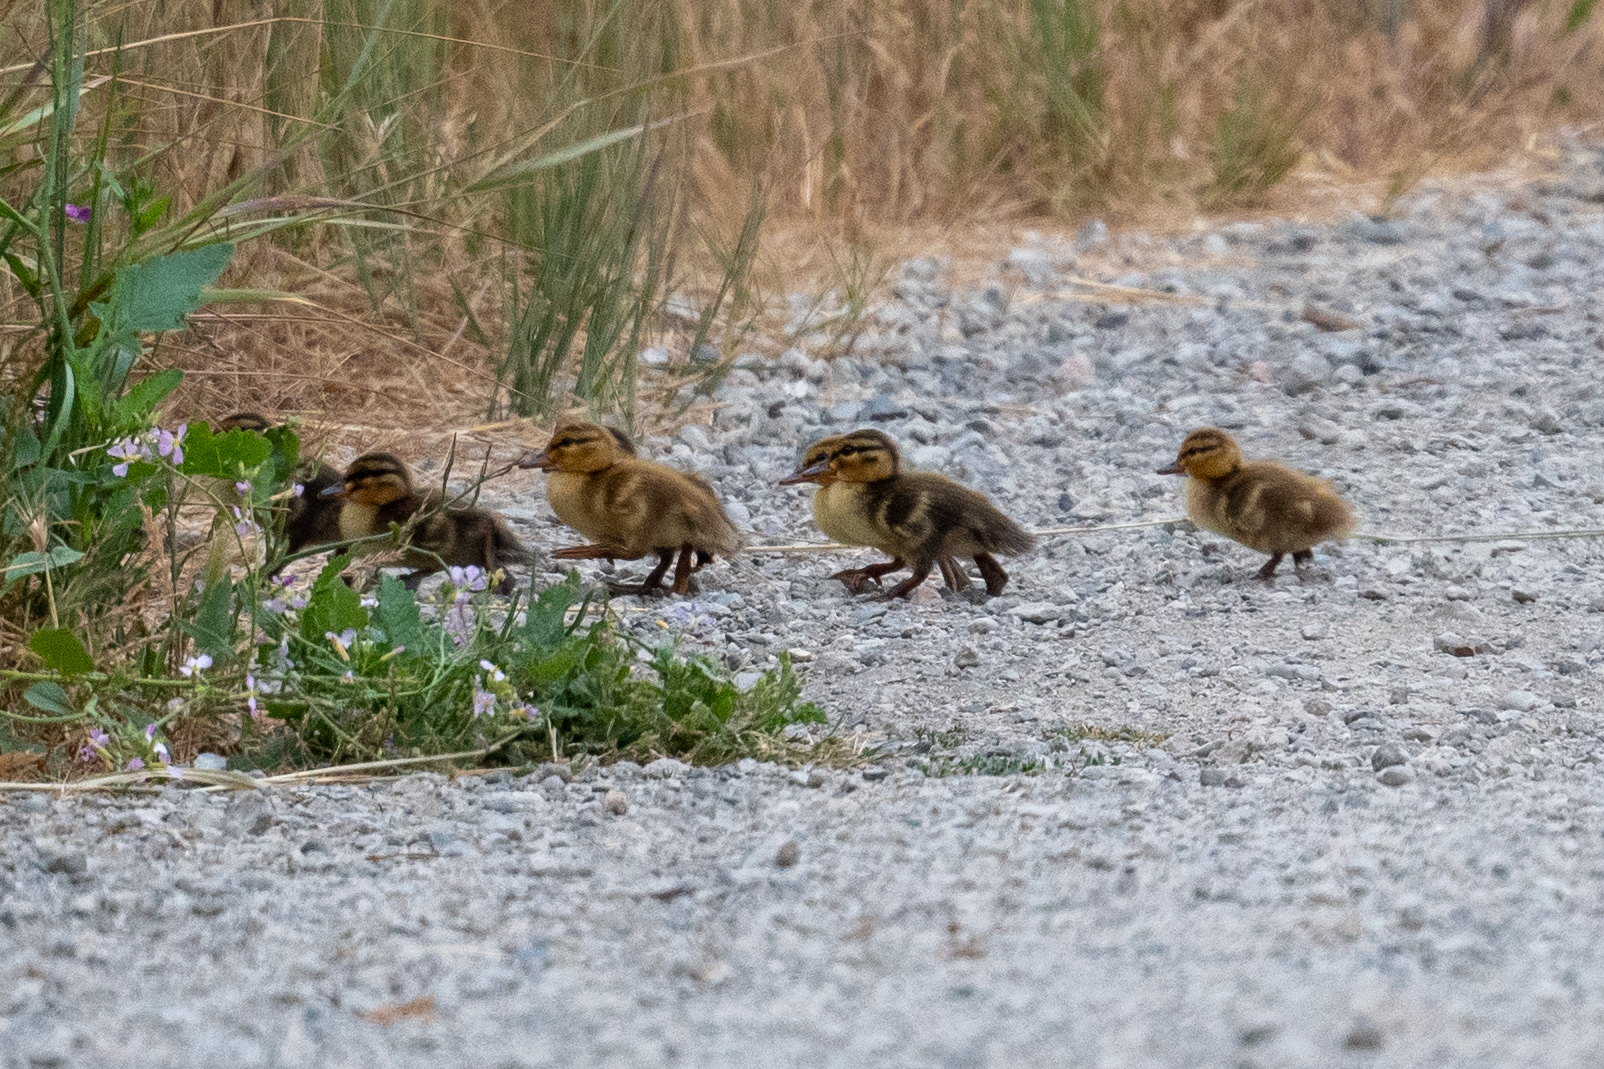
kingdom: Animalia
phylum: Chordata
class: Aves
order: Anseriformes
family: Anatidae
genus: Anas
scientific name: Anas platyrhynchos
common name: Mallard
